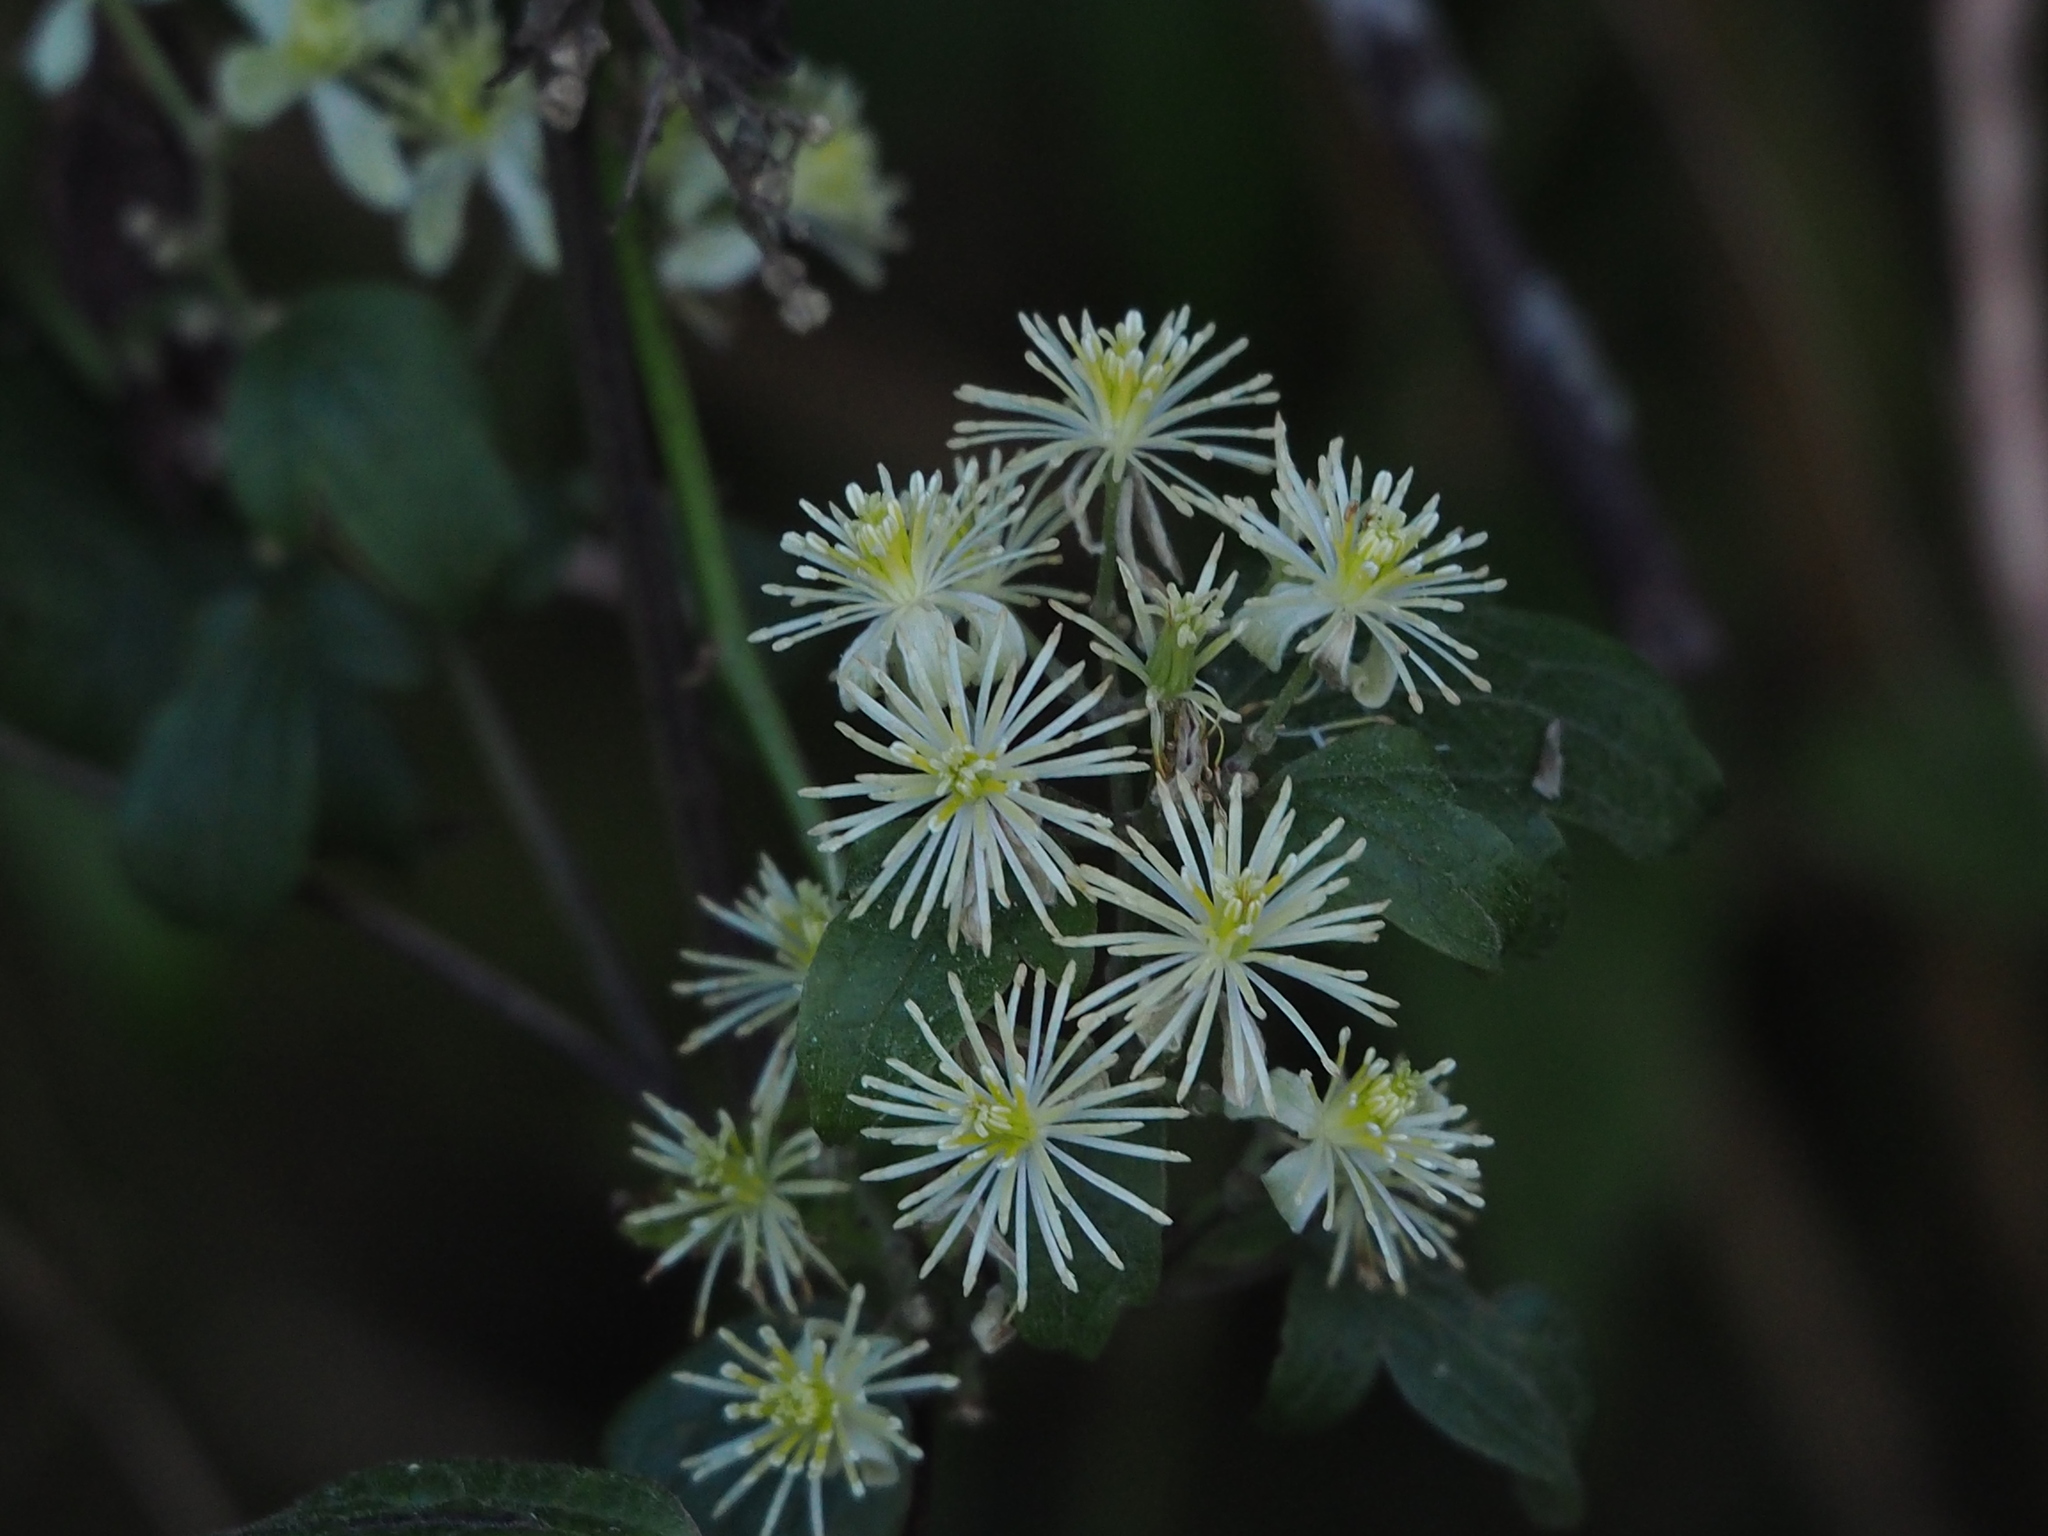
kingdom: Plantae
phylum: Tracheophyta
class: Magnoliopsida
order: Ranunculales
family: Ranunculaceae
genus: Clematis
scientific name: Clematis grata
